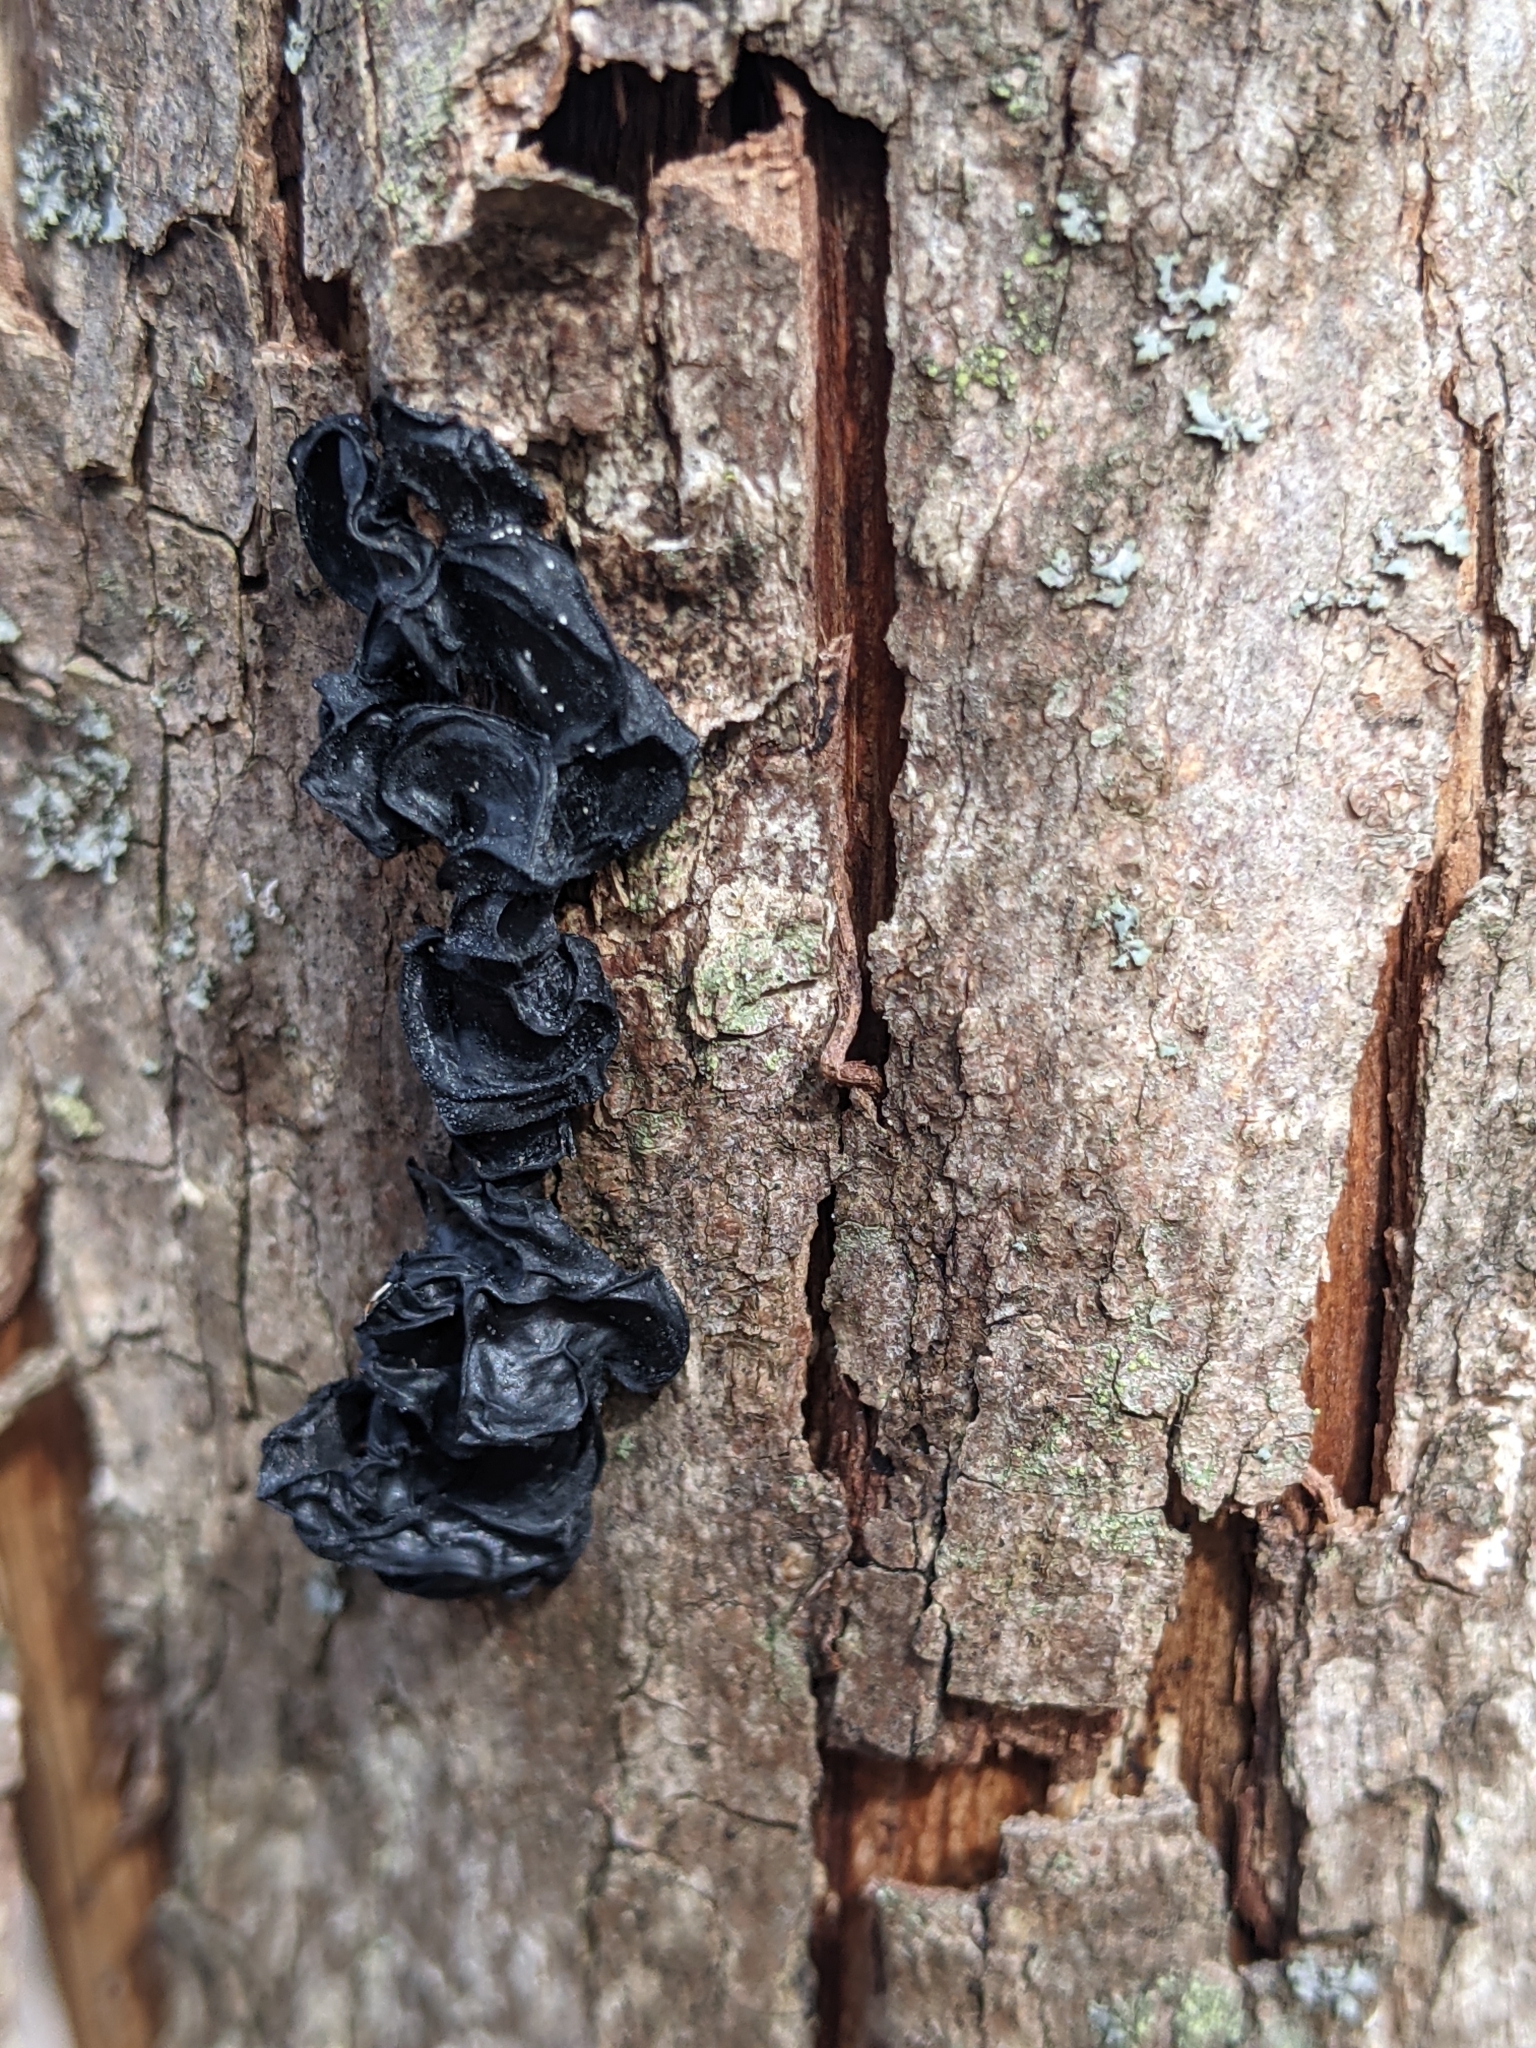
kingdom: Fungi
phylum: Basidiomycota
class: Agaricomycetes
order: Auriculariales
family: Auriculariaceae
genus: Exidia
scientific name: Exidia glandulosa
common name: Witches' butter
